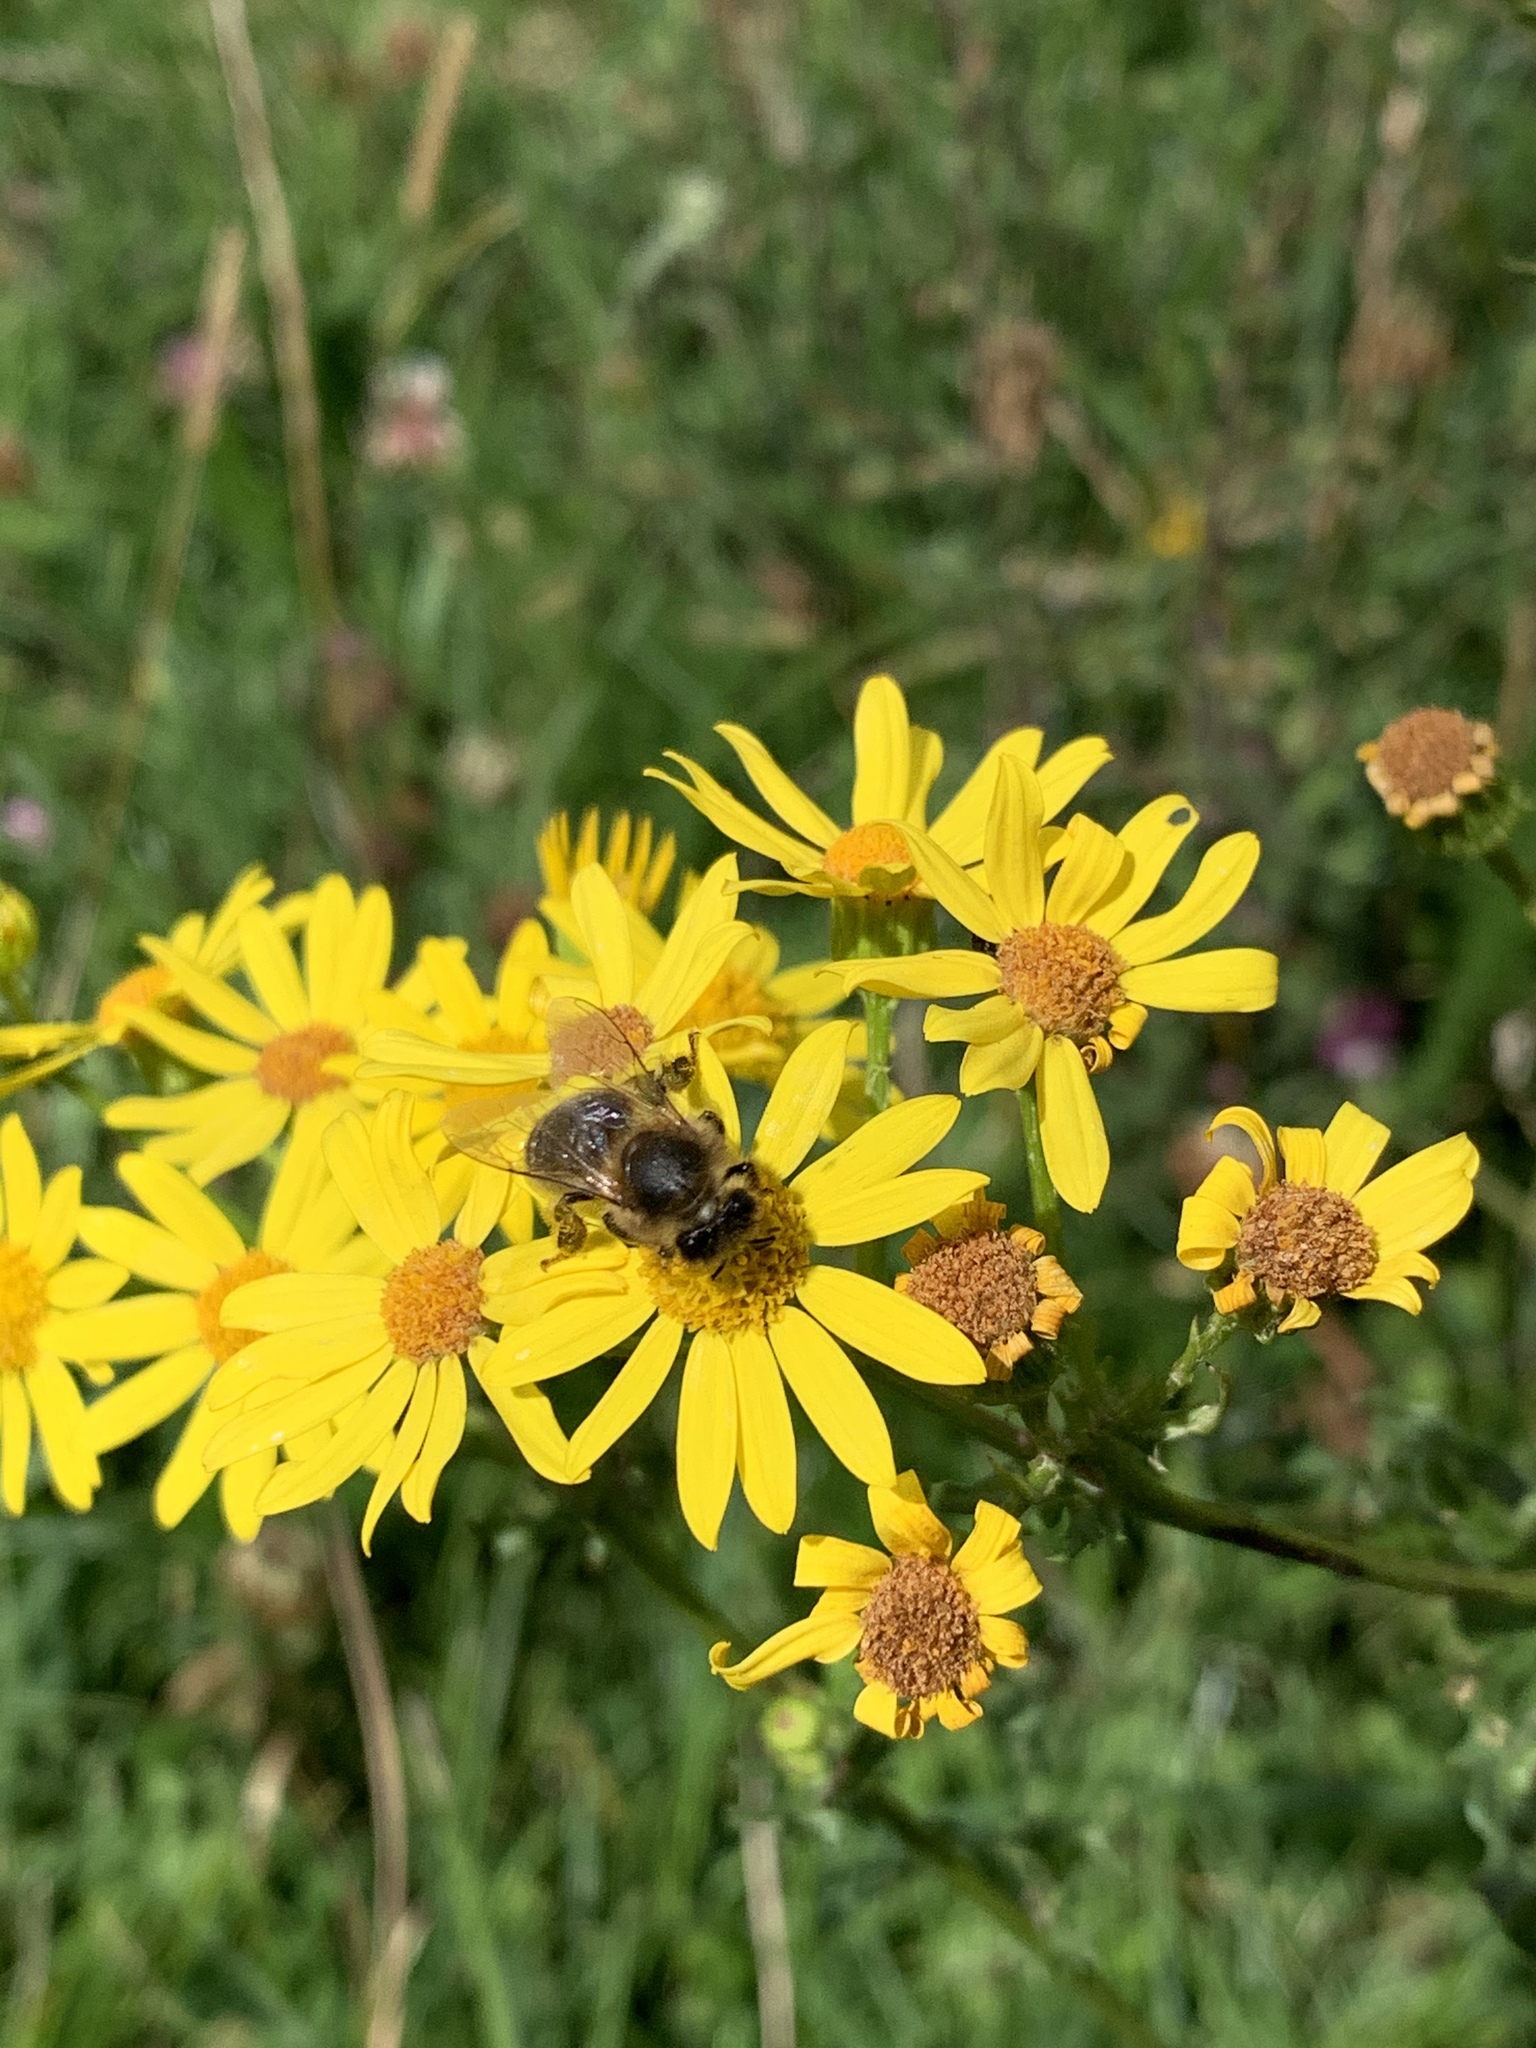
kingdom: Animalia
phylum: Arthropoda
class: Insecta
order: Hymenoptera
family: Apidae
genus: Apis
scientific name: Apis mellifera
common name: Honey bee
